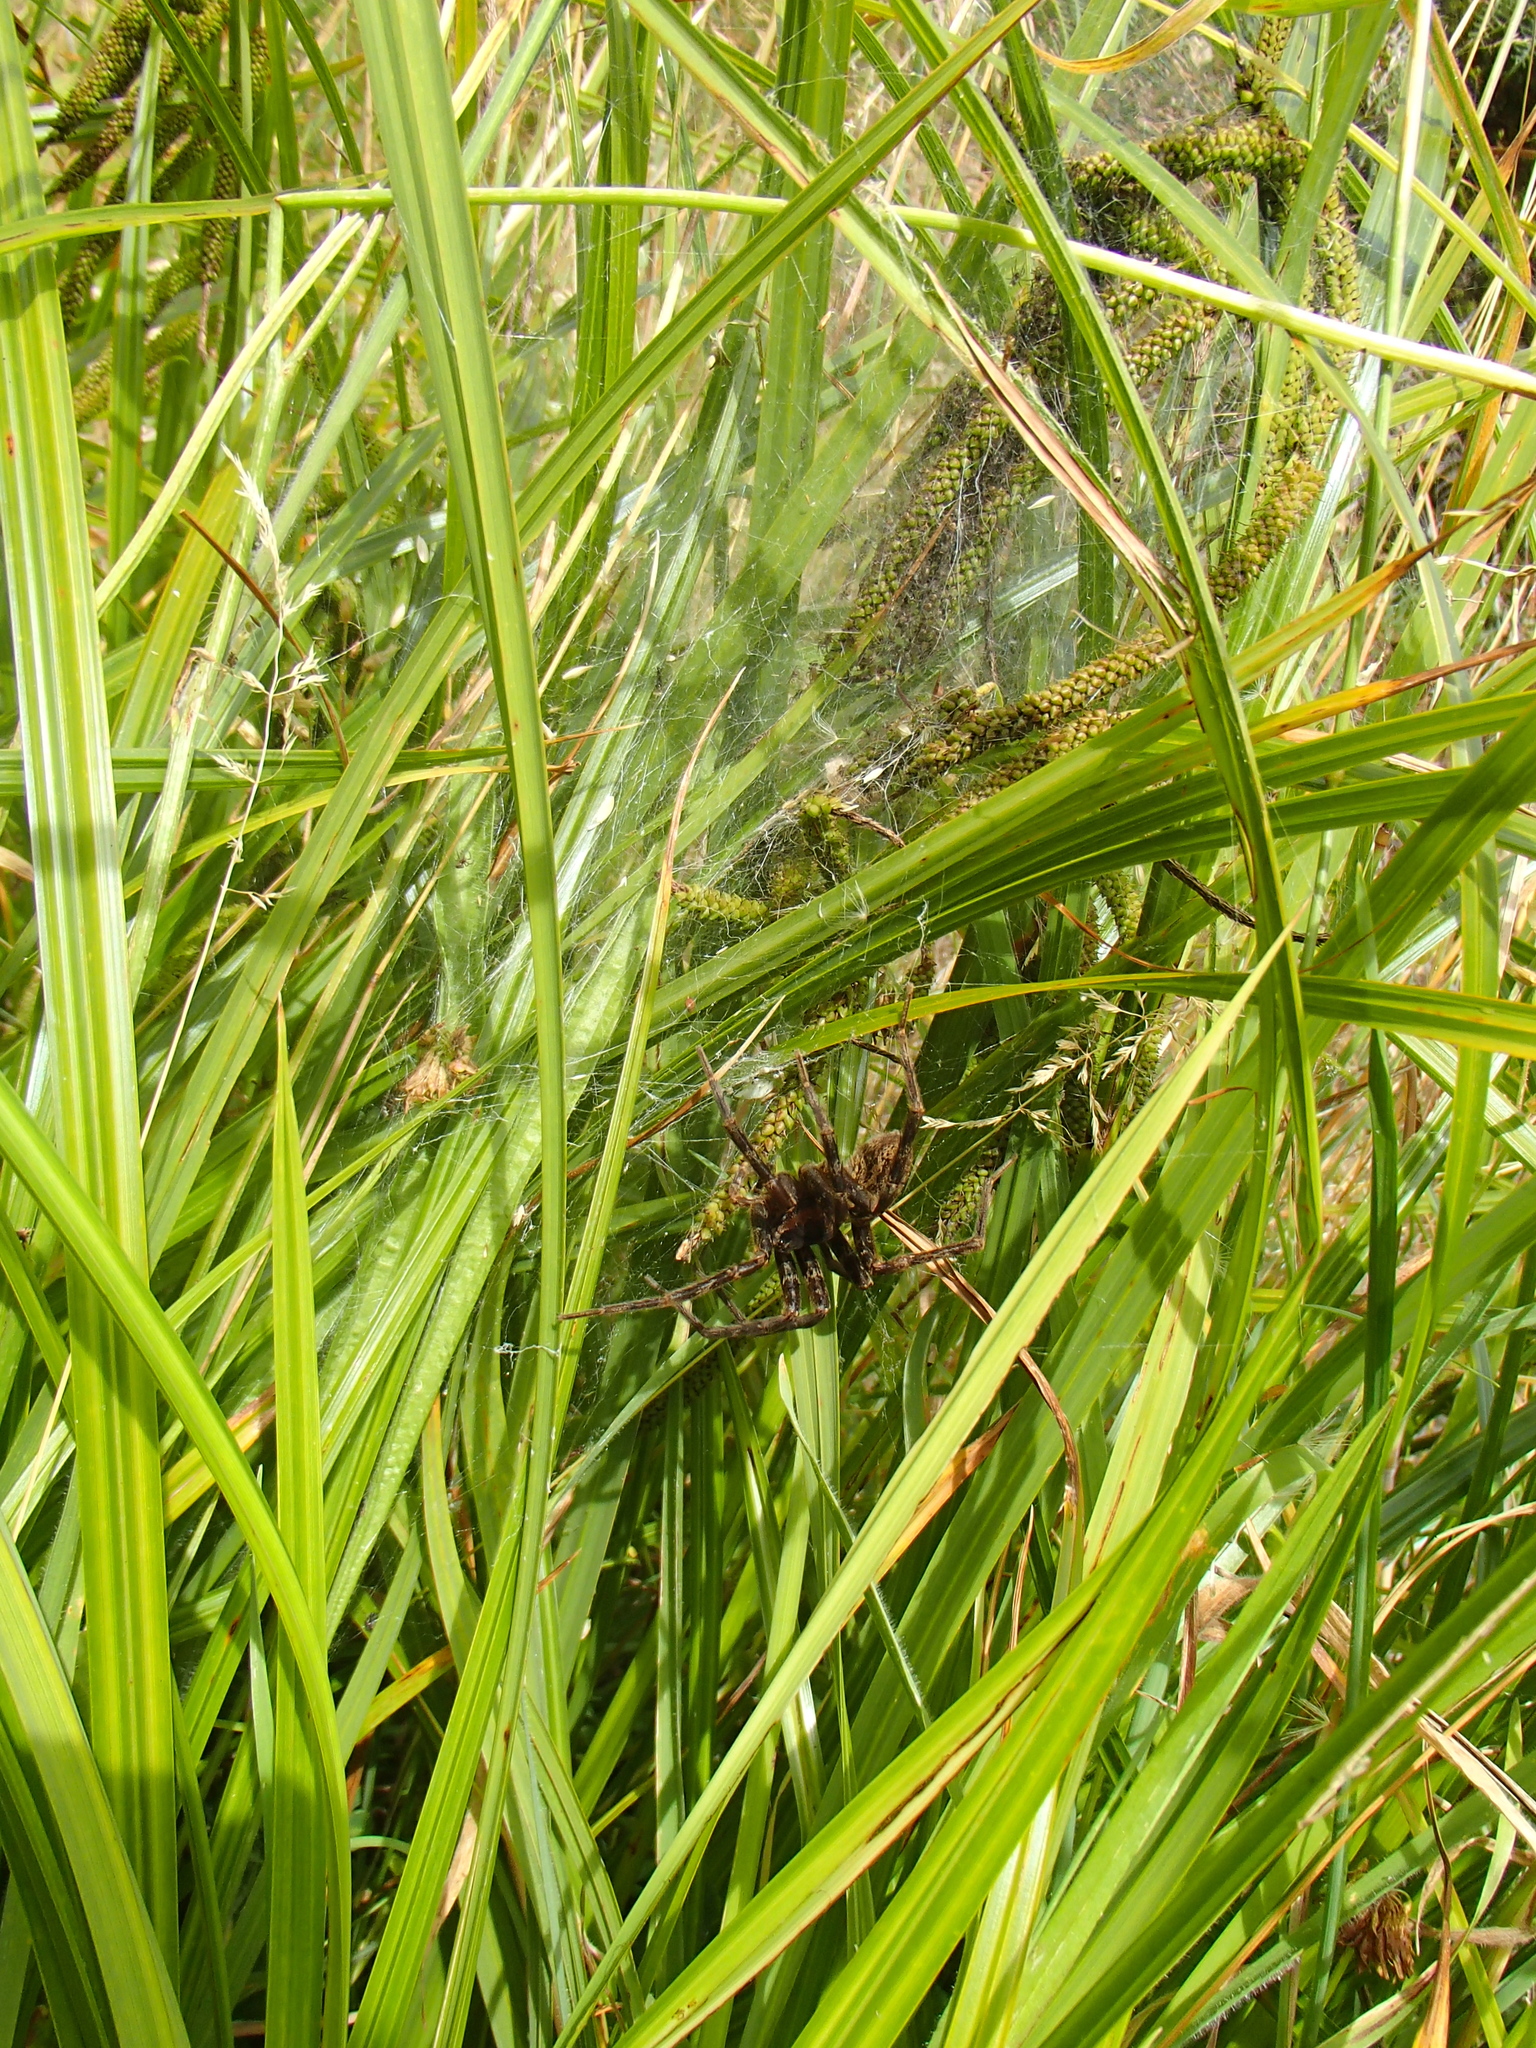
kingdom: Animalia
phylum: Arthropoda
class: Arachnida
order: Araneae
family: Pisauridae
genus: Dolomedes
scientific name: Dolomedes dondalei
